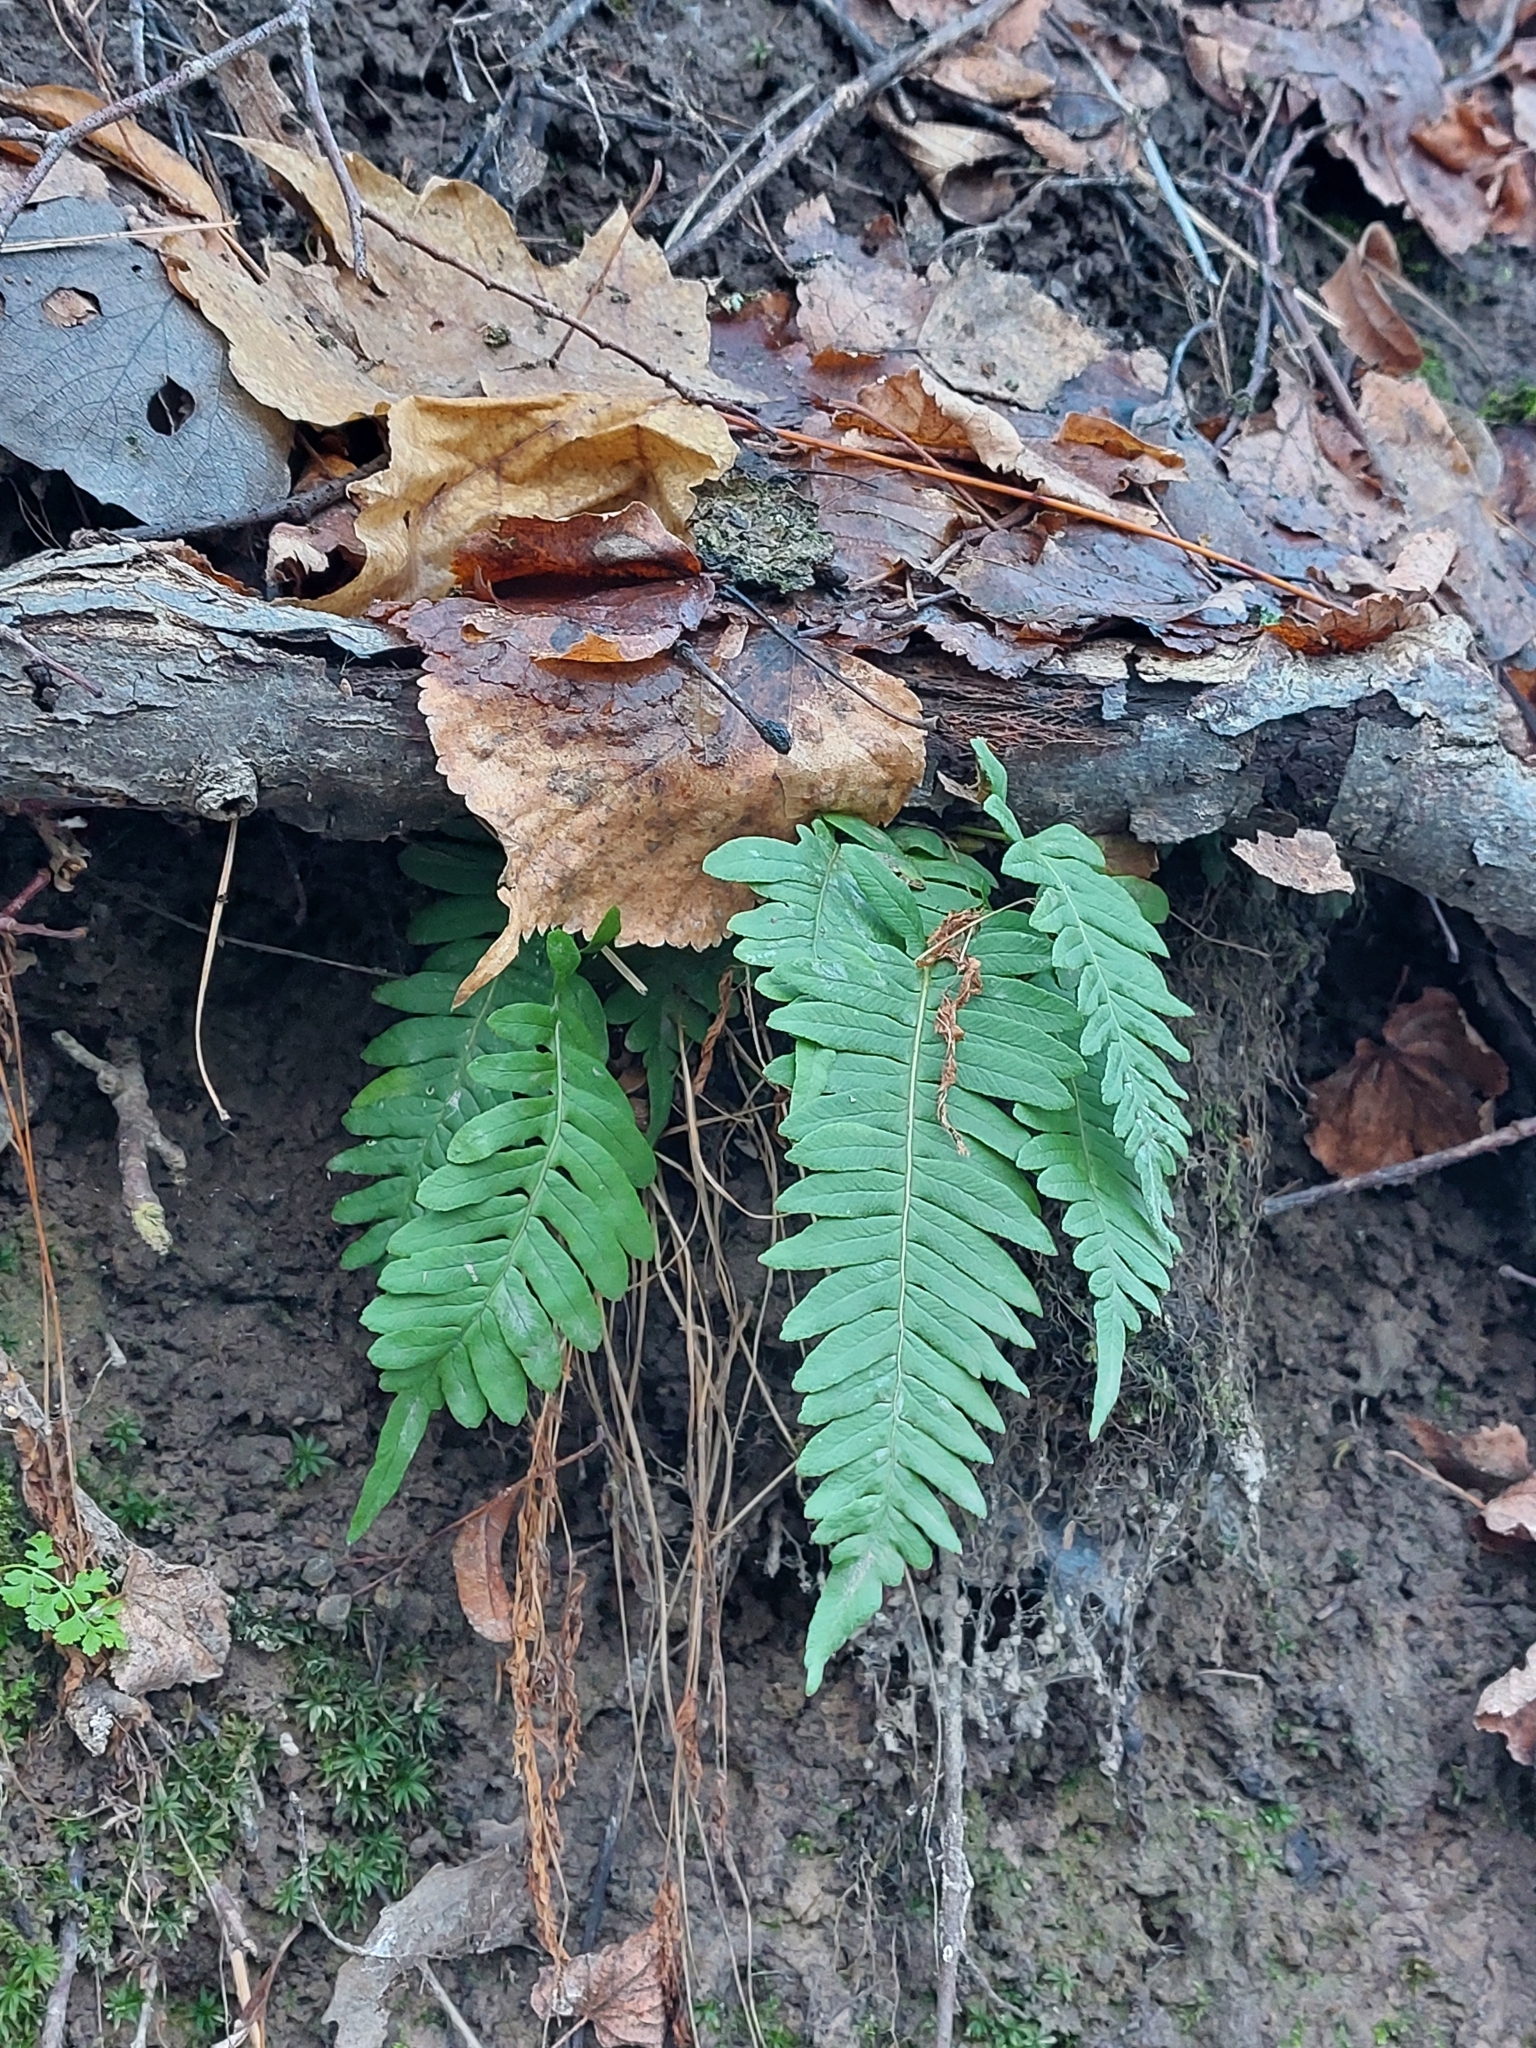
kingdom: Plantae
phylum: Tracheophyta
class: Polypodiopsida
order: Polypodiales
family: Polypodiaceae
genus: Polypodium
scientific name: Polypodium vulgare
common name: Common polypody
